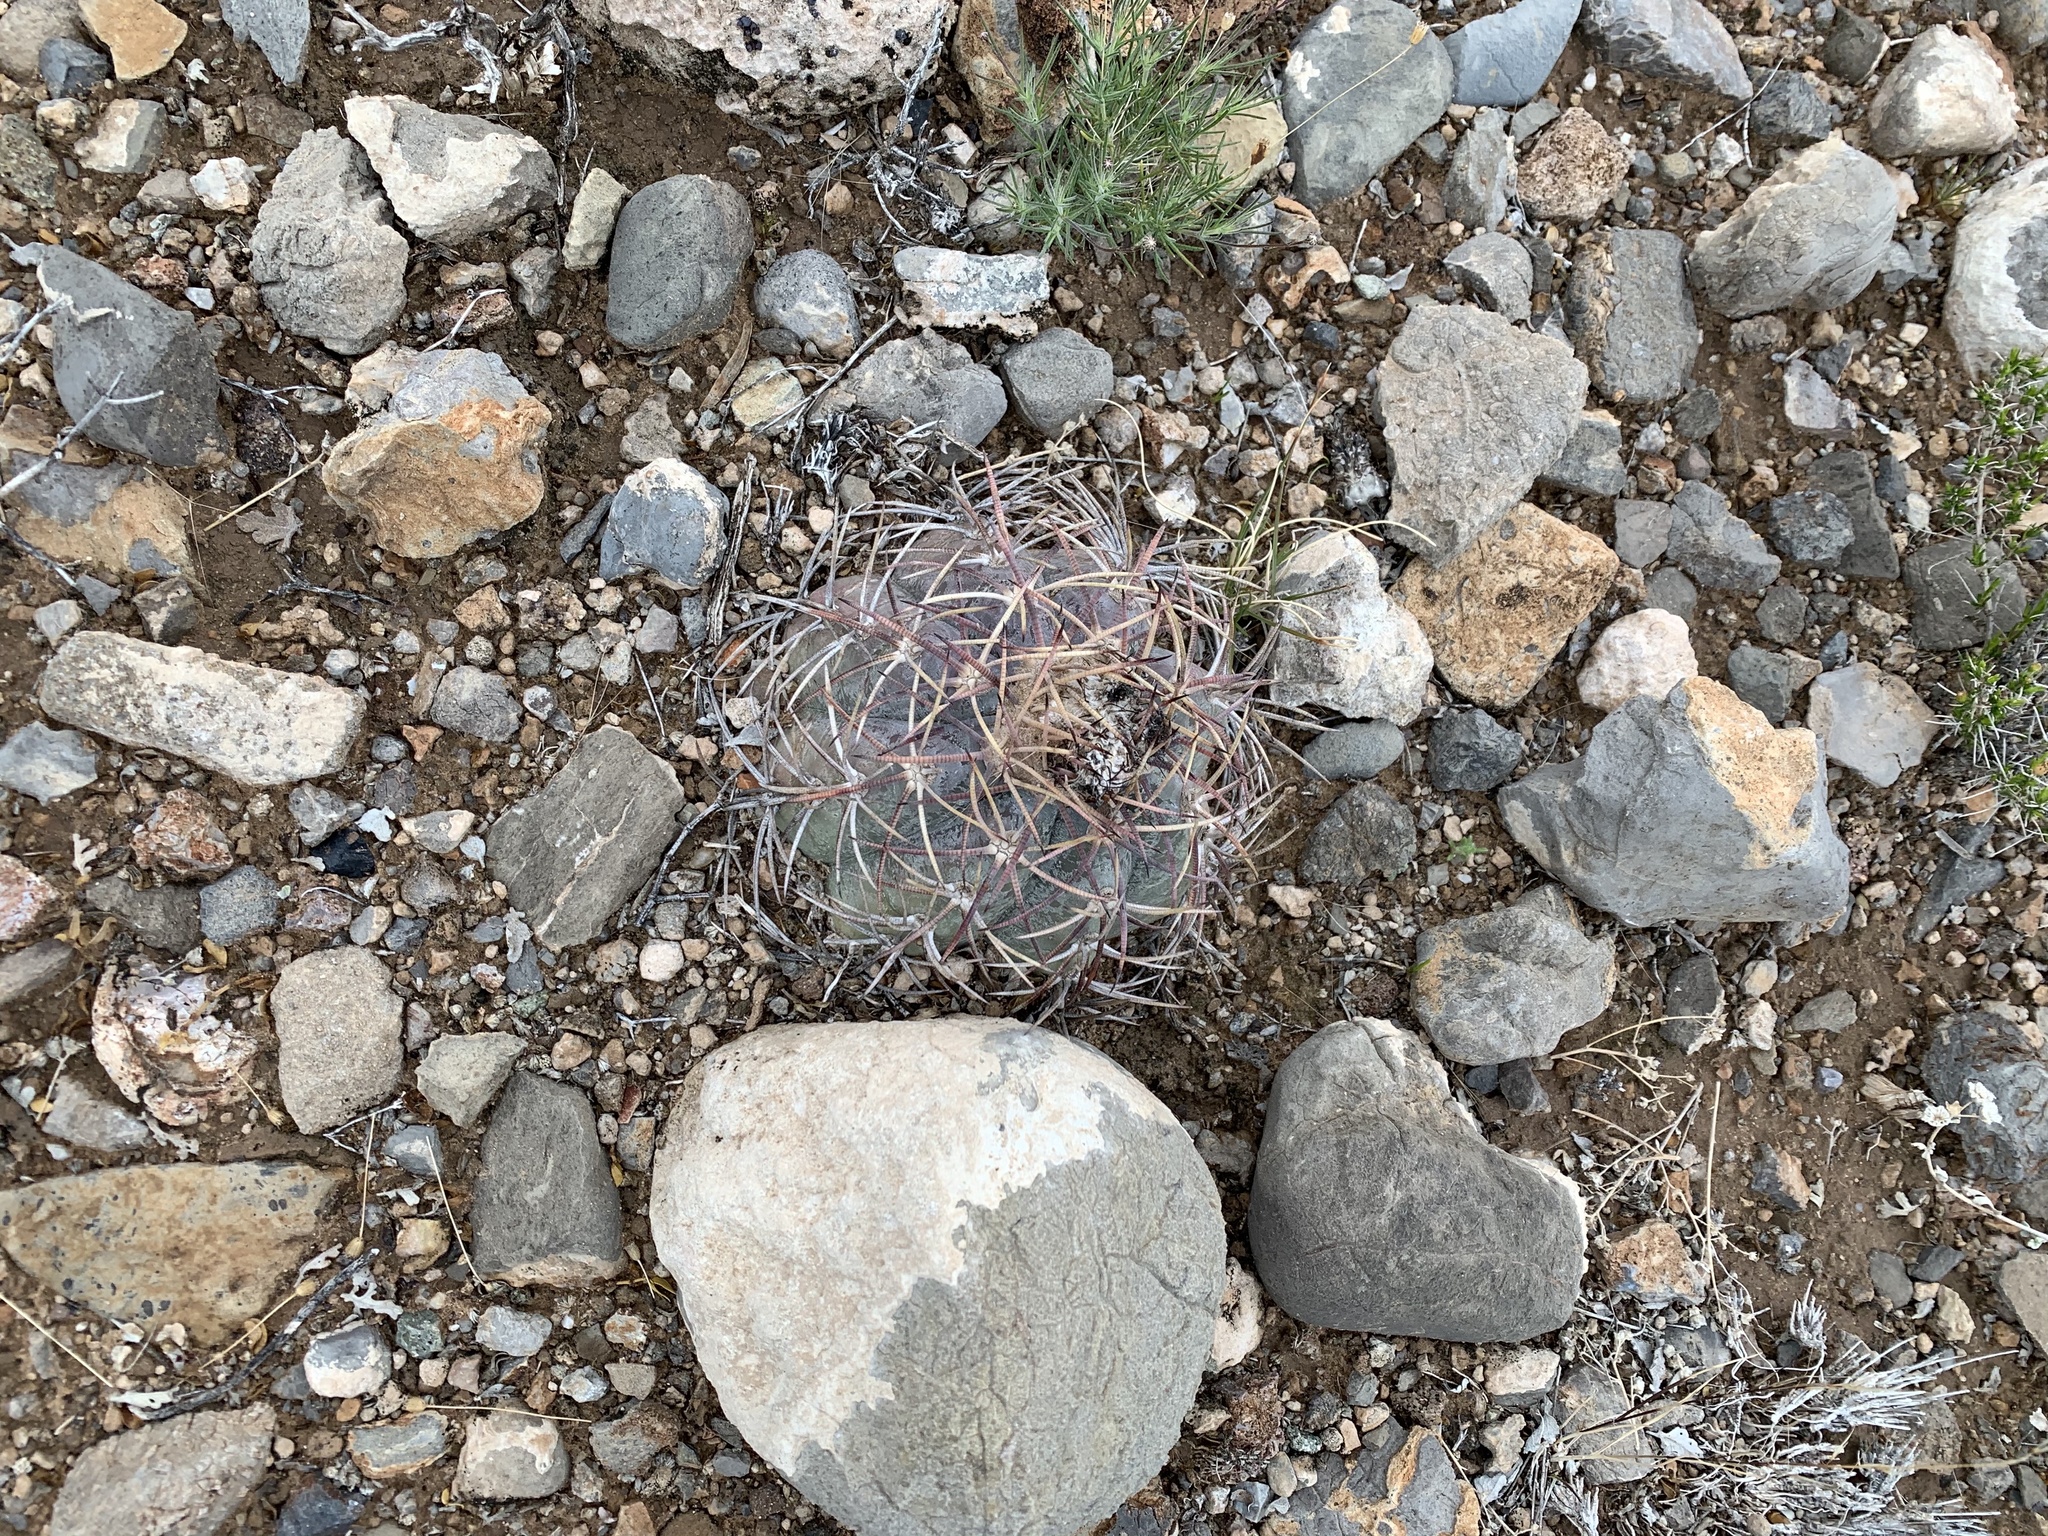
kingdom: Plantae
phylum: Tracheophyta
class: Magnoliopsida
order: Caryophyllales
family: Cactaceae
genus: Echinocactus
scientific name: Echinocactus horizonthalonius
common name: Devilshead
